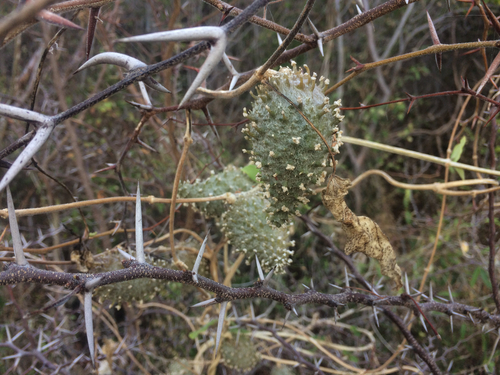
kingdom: Plantae
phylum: Tracheophyta
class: Magnoliopsida
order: Gentianales
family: Apocynaceae
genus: Ibatia
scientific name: Ibatia maritima
